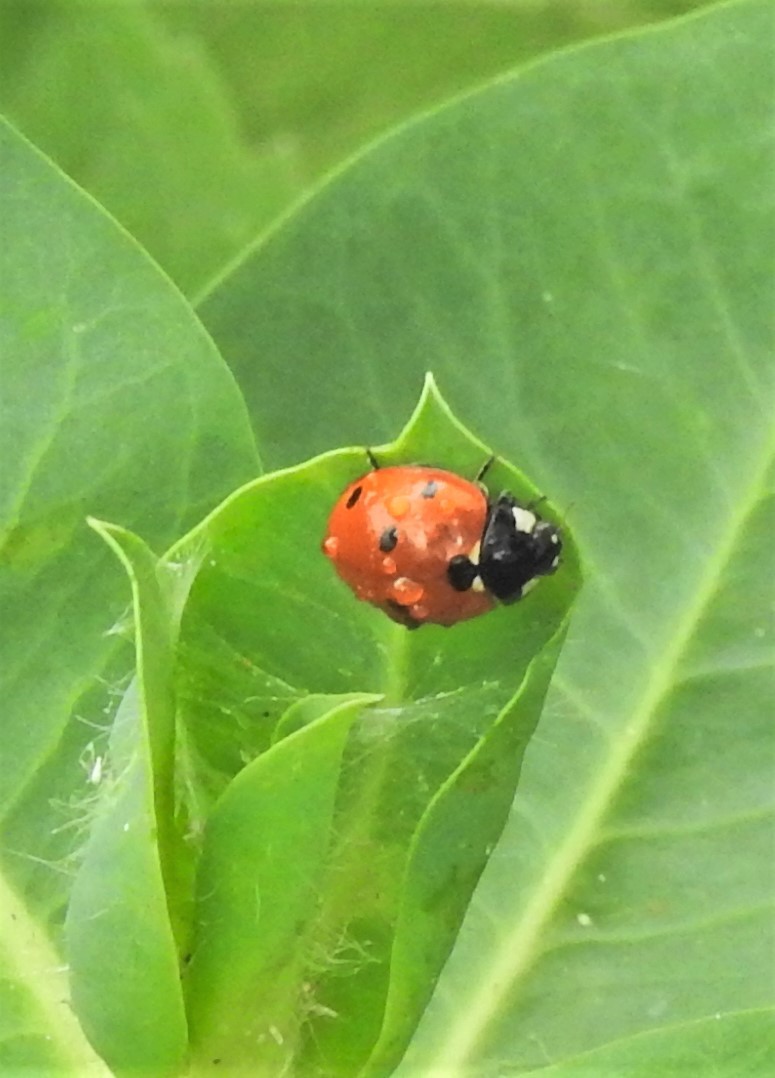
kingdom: Animalia
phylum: Arthropoda
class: Insecta
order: Coleoptera
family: Coccinellidae
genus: Coccinella
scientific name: Coccinella septempunctata
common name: Sevenspotted lady beetle
